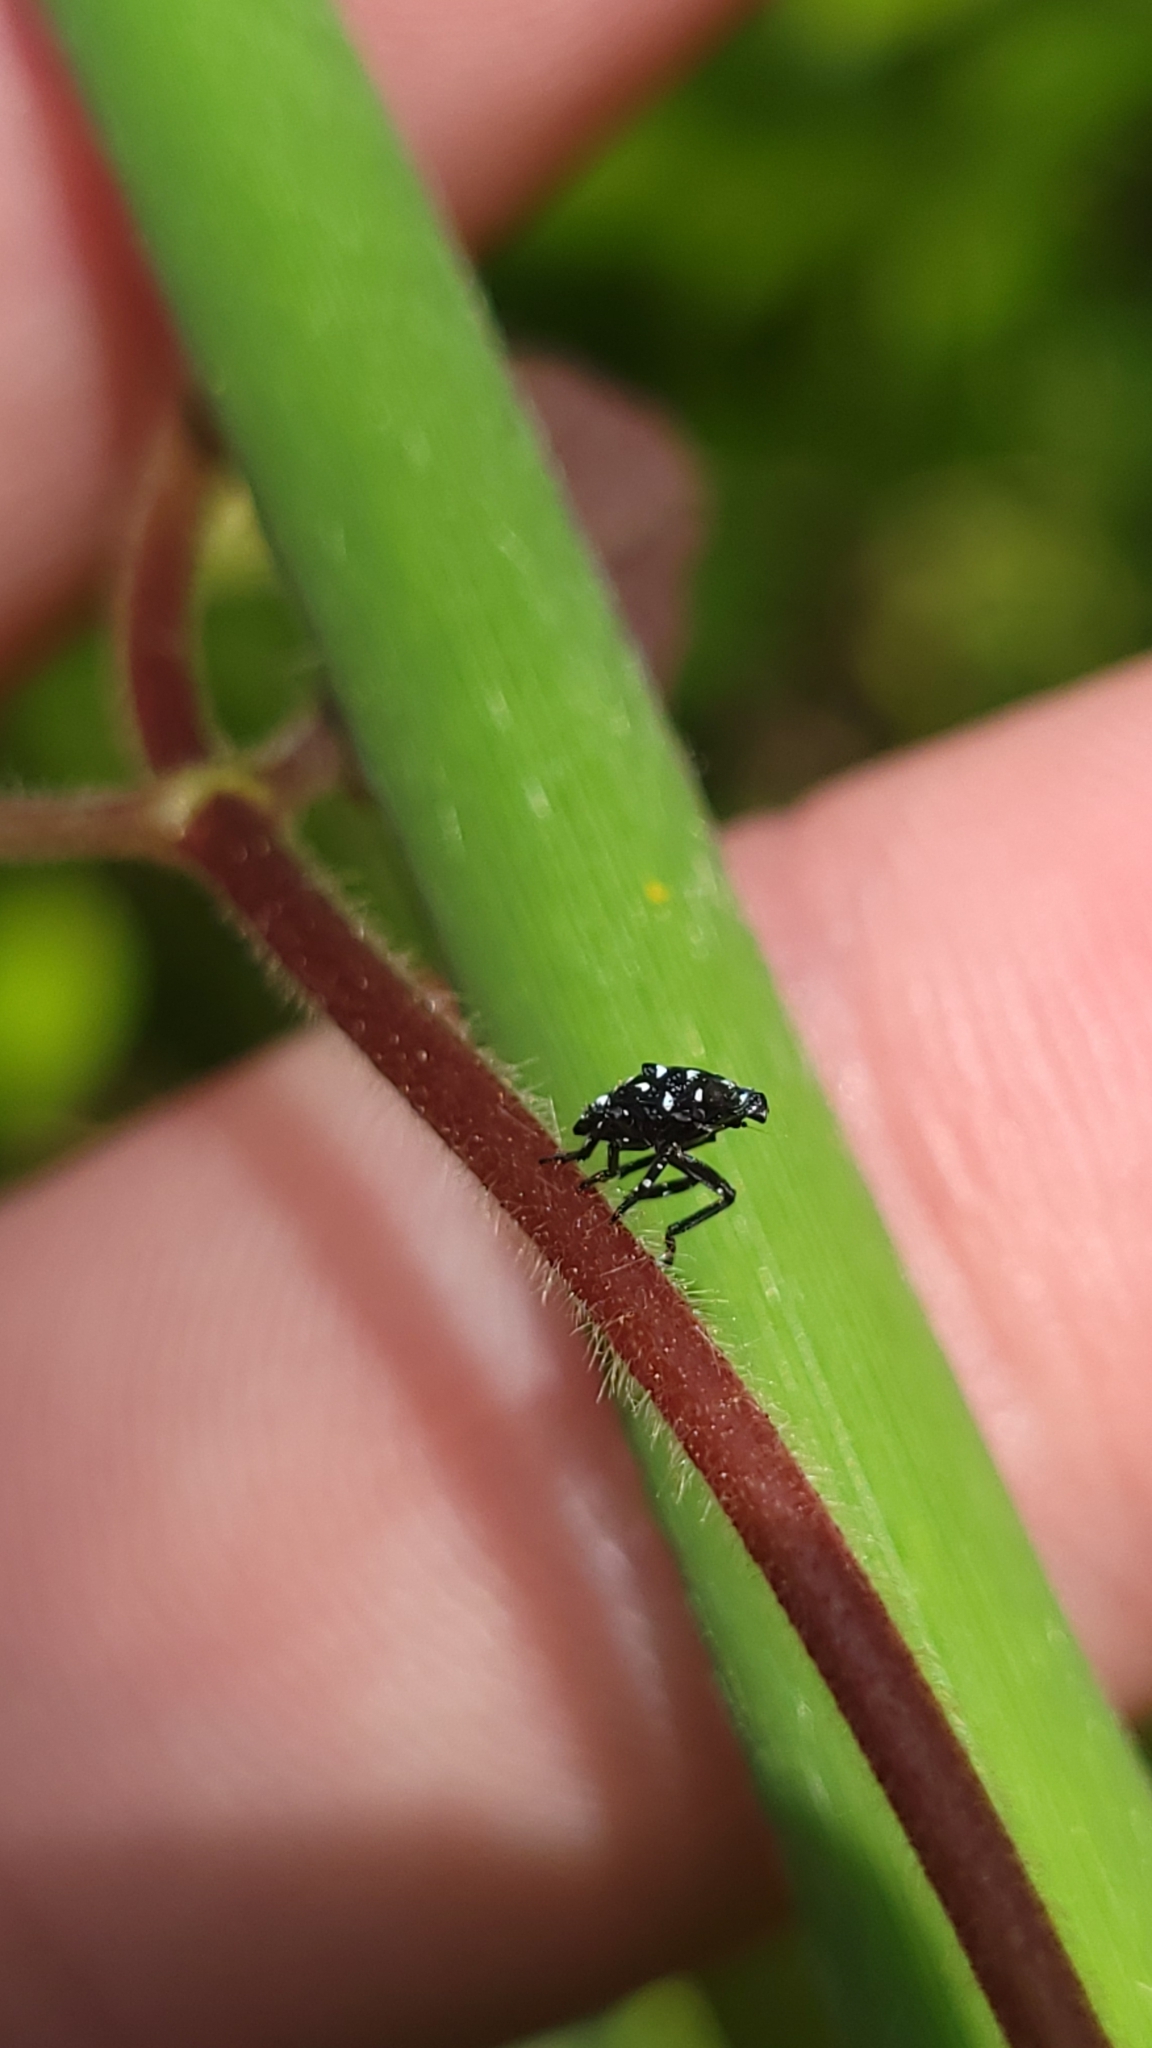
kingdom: Animalia
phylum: Arthropoda
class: Insecta
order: Hemiptera
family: Fulgoridae
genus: Lycorma
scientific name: Lycorma delicatula
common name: Spotted lanternfly
